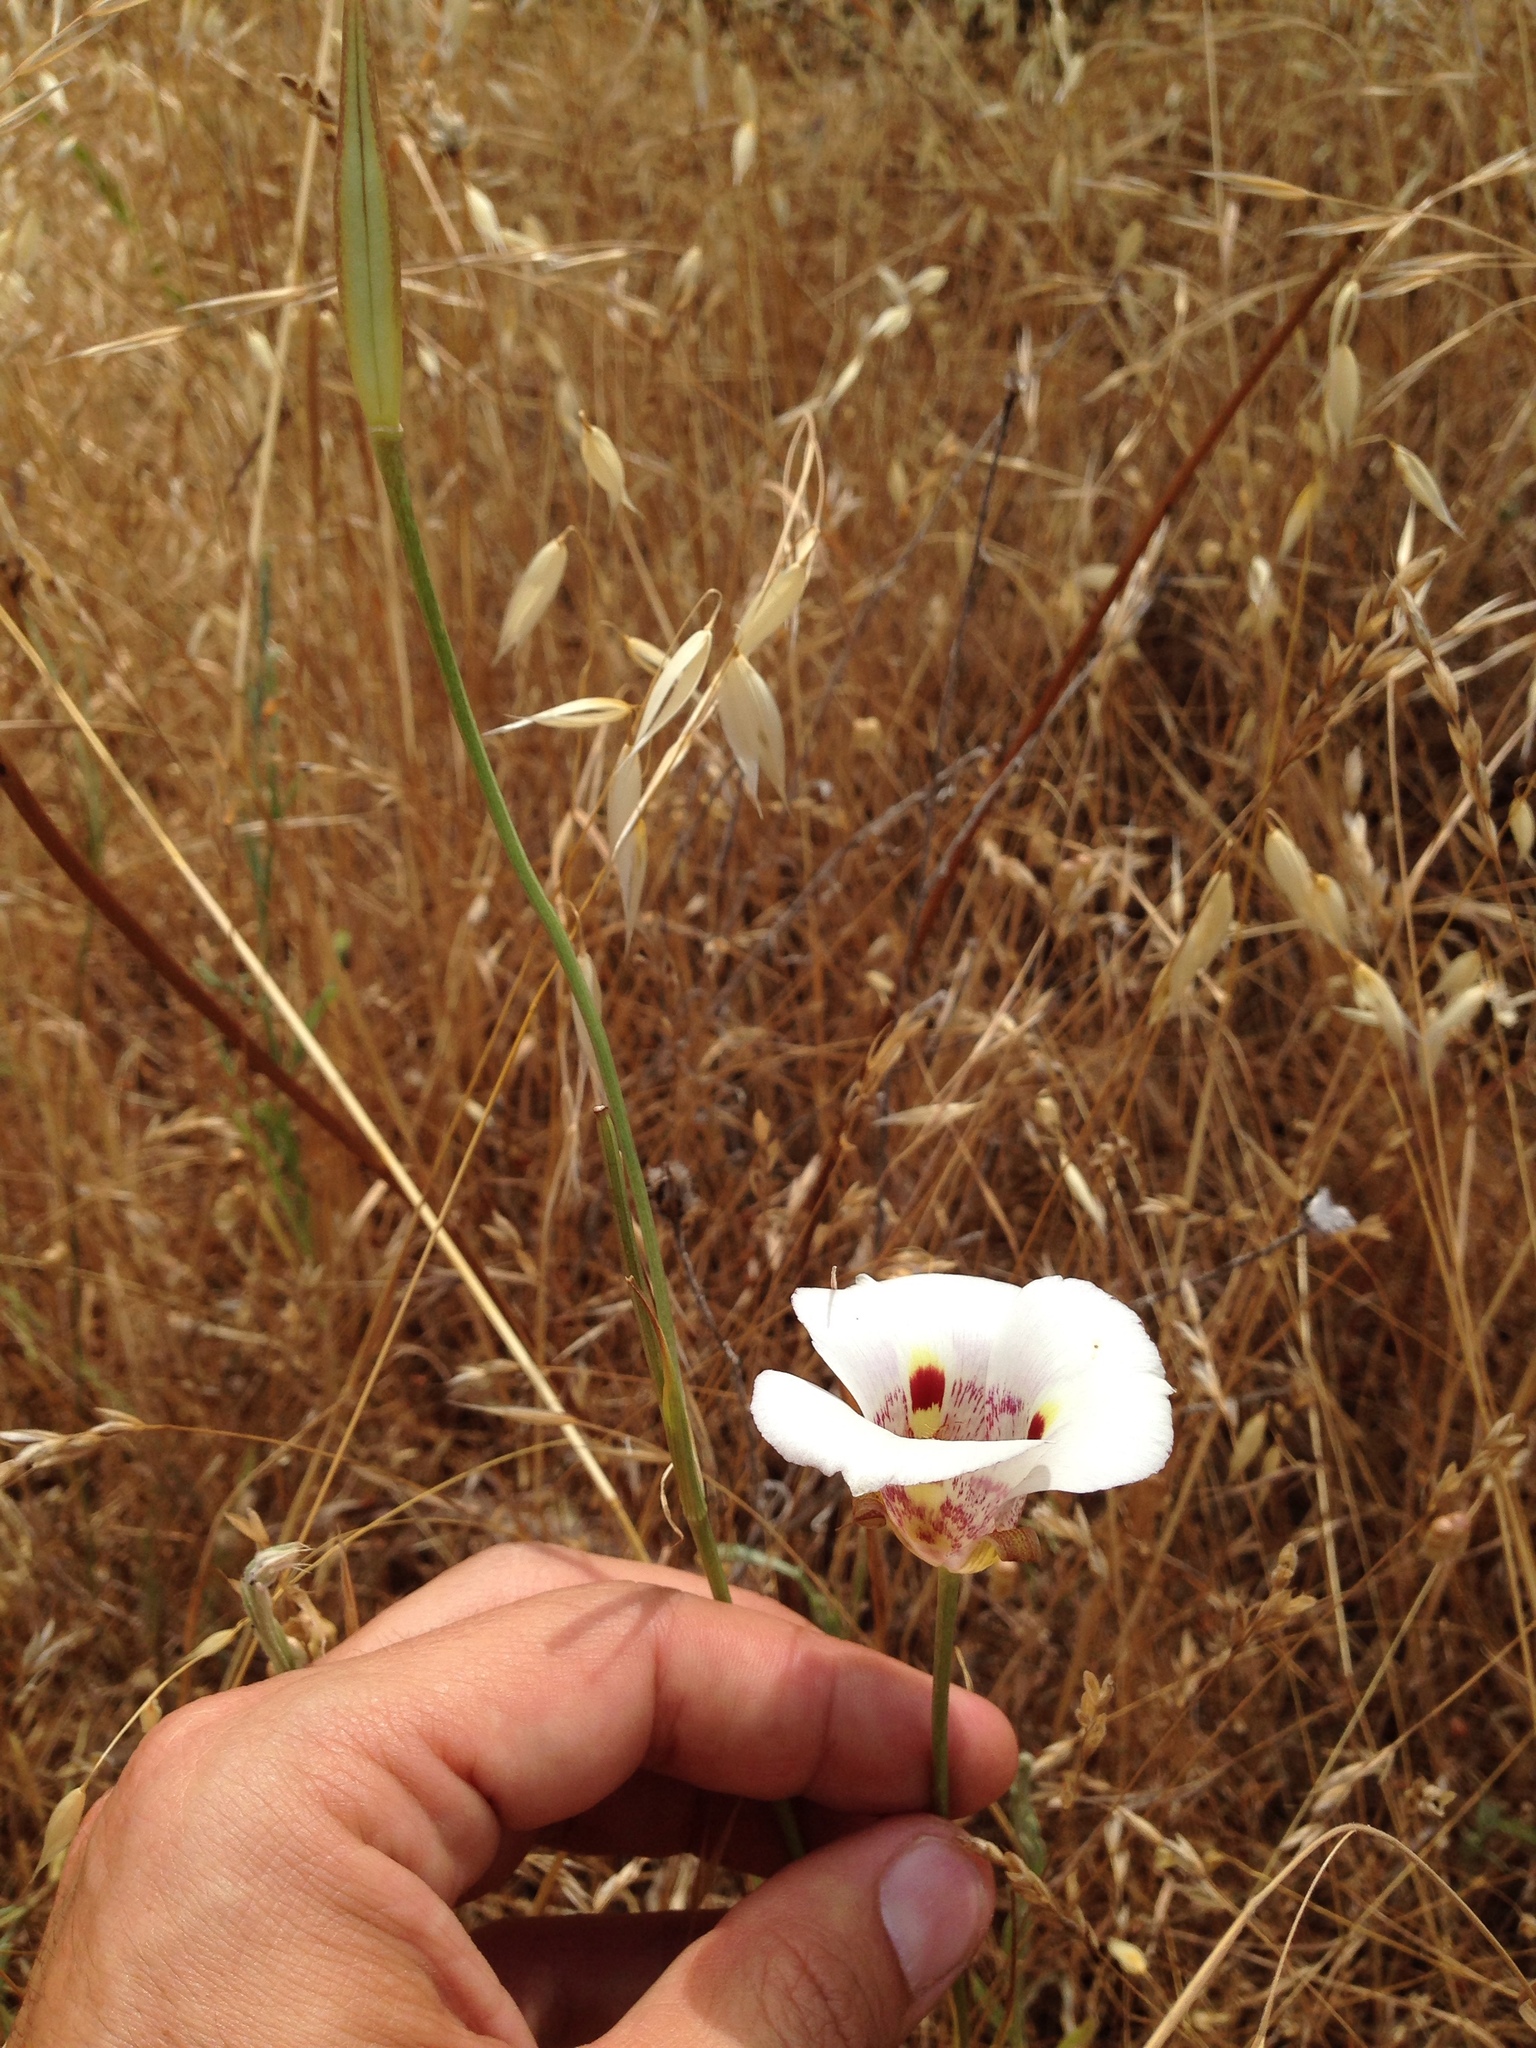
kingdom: Plantae
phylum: Tracheophyta
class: Liliopsida
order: Liliales
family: Liliaceae
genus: Calochortus
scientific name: Calochortus argillosus
